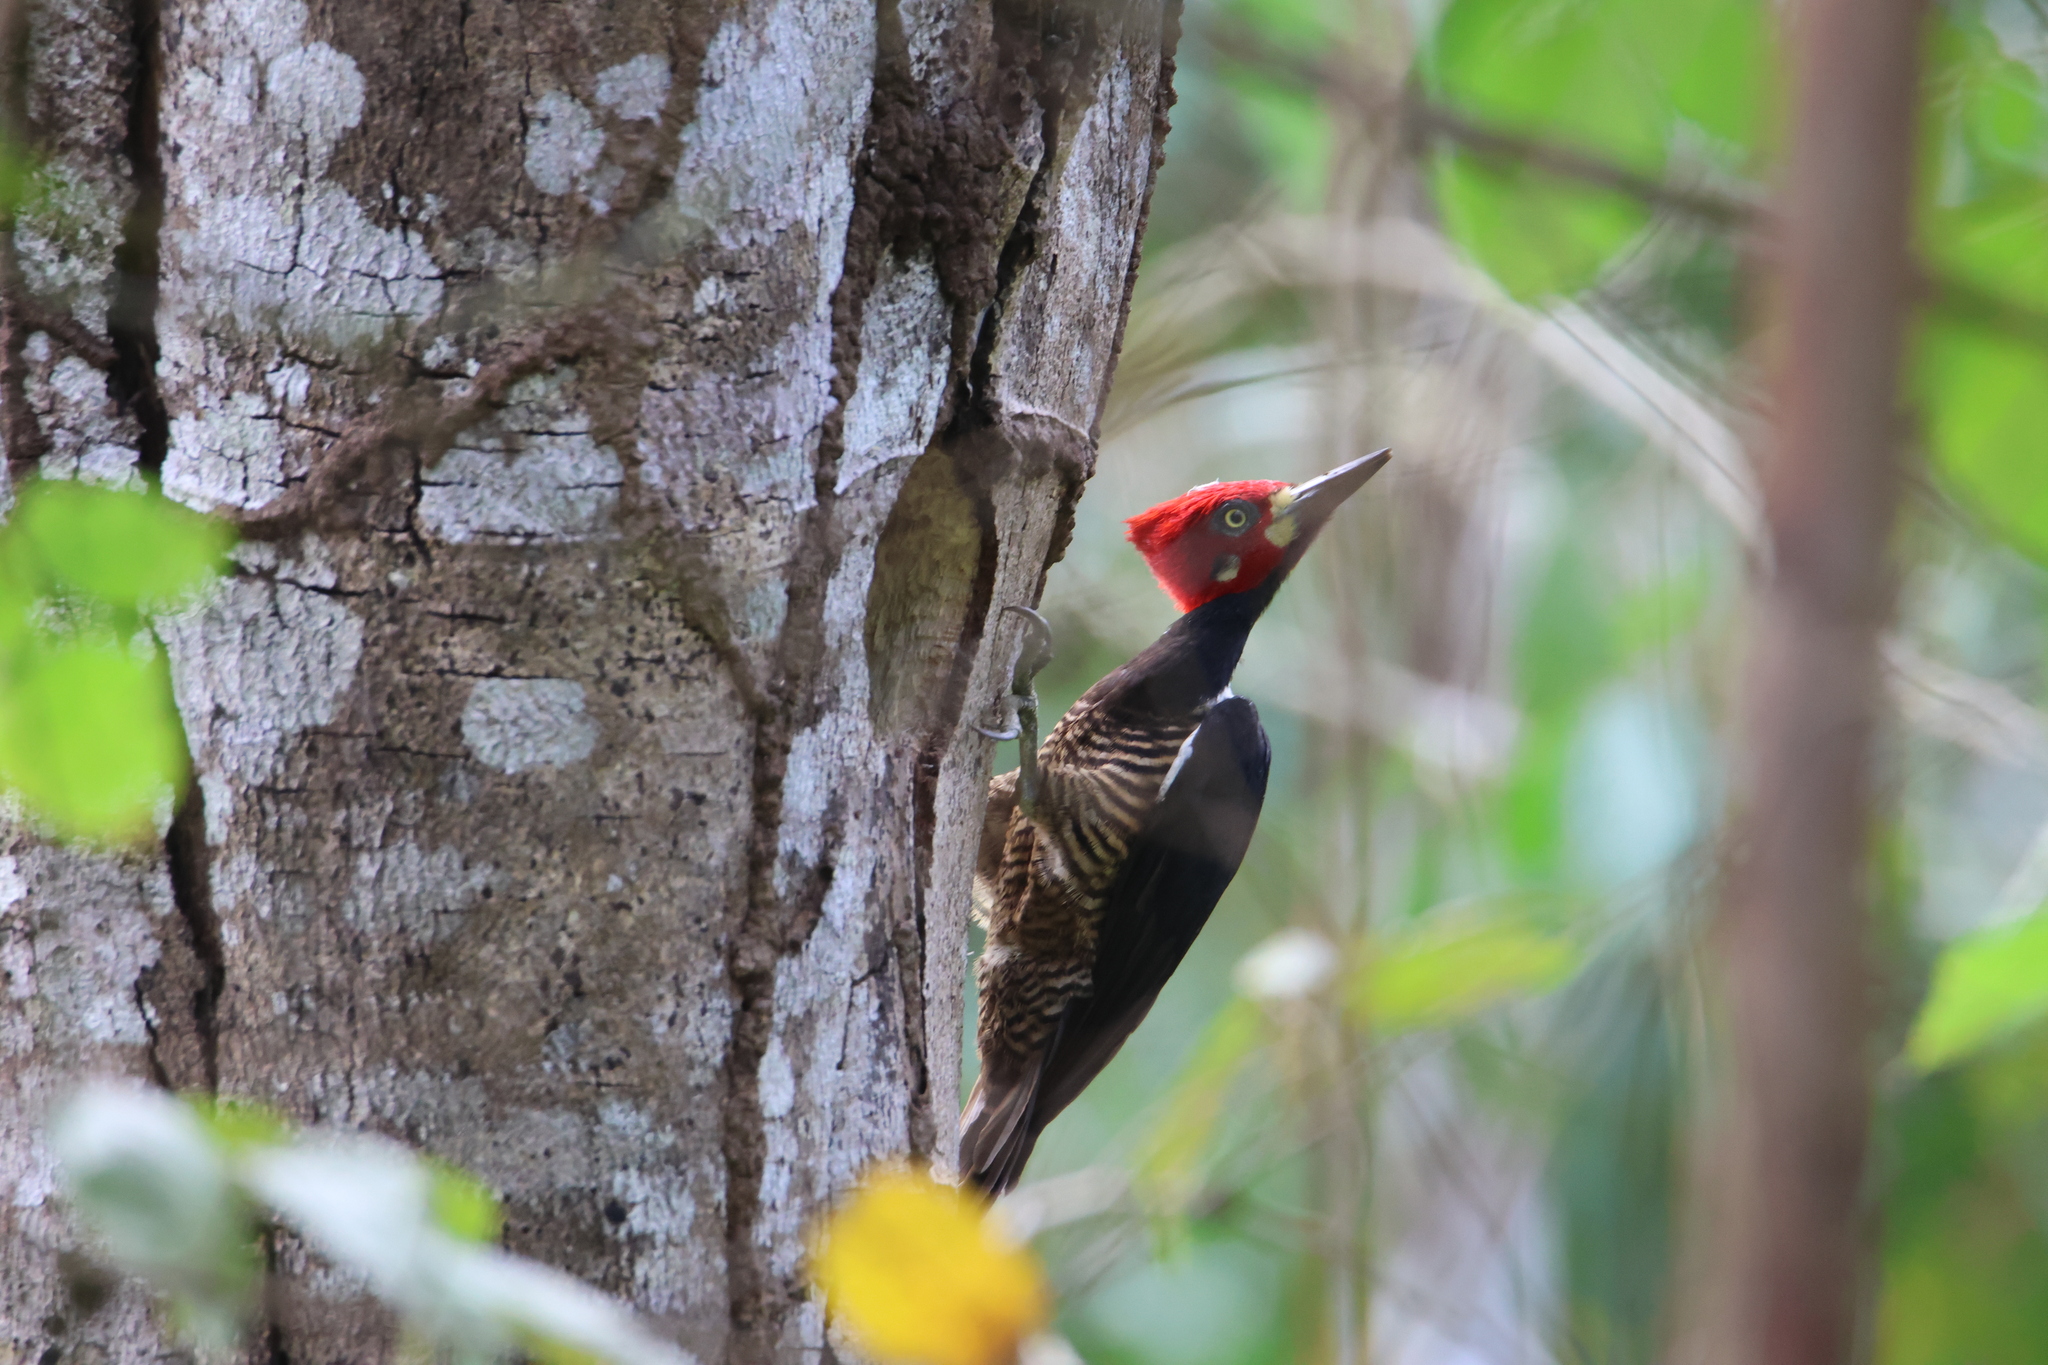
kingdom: Animalia
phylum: Chordata
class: Aves
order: Piciformes
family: Picidae
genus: Campephilus
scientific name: Campephilus melanoleucos
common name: Crimson-crested woodpecker
